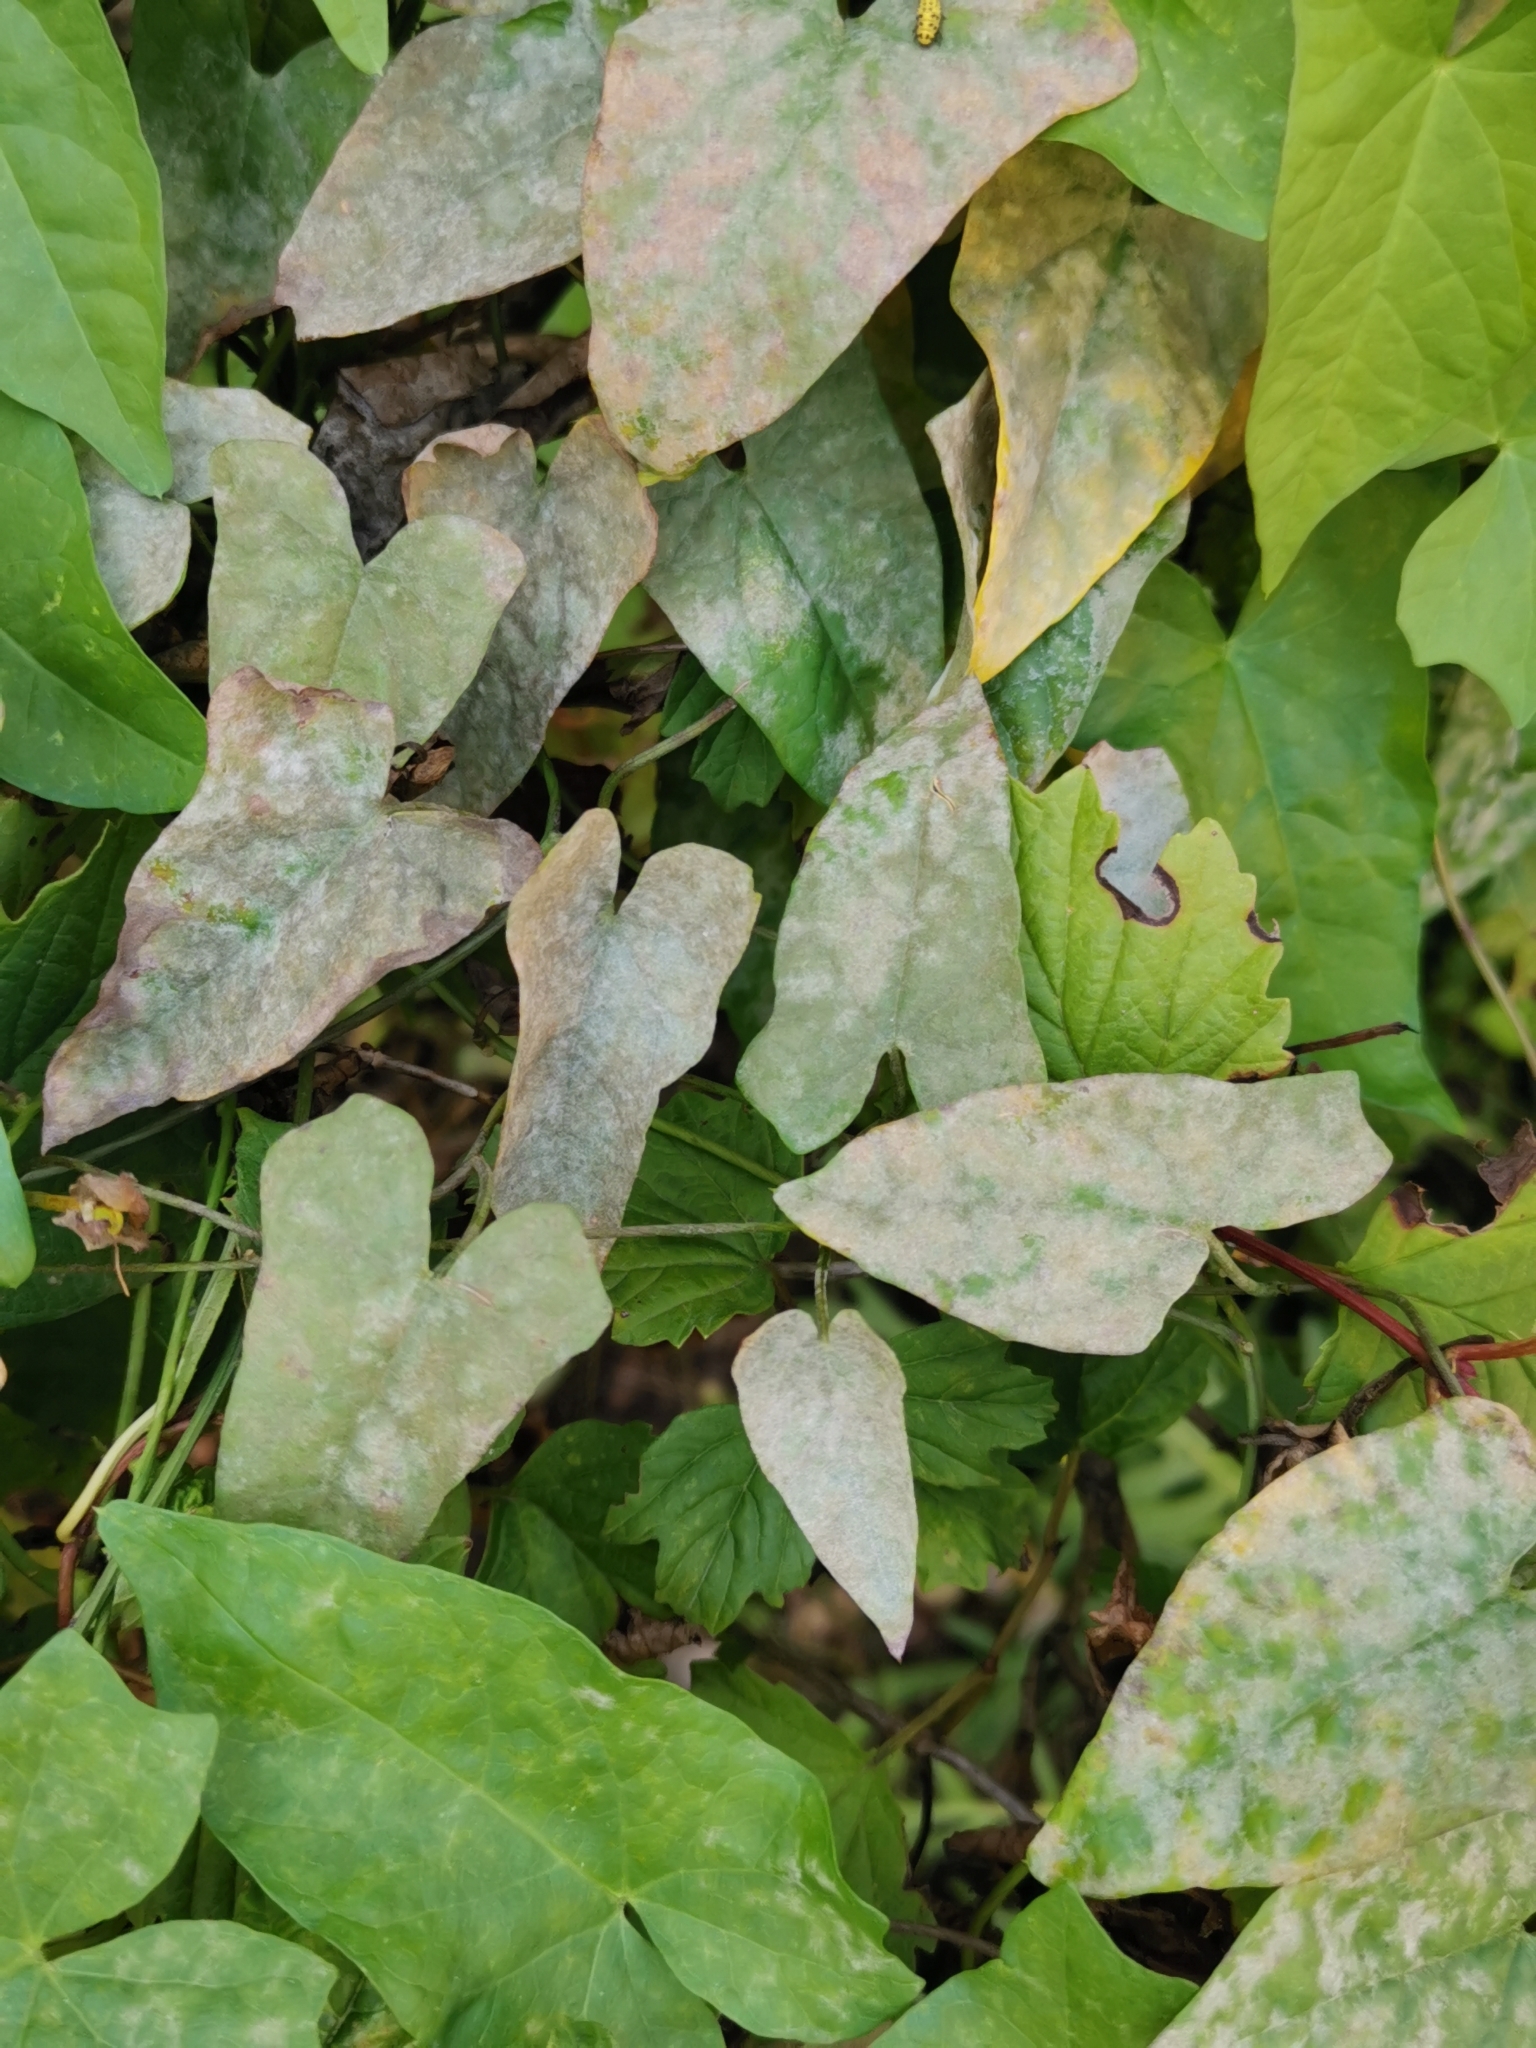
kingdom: Fungi
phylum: Ascomycota
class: Leotiomycetes
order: Helotiales
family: Erysiphaceae
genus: Erysiphe
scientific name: Erysiphe convolvuli
